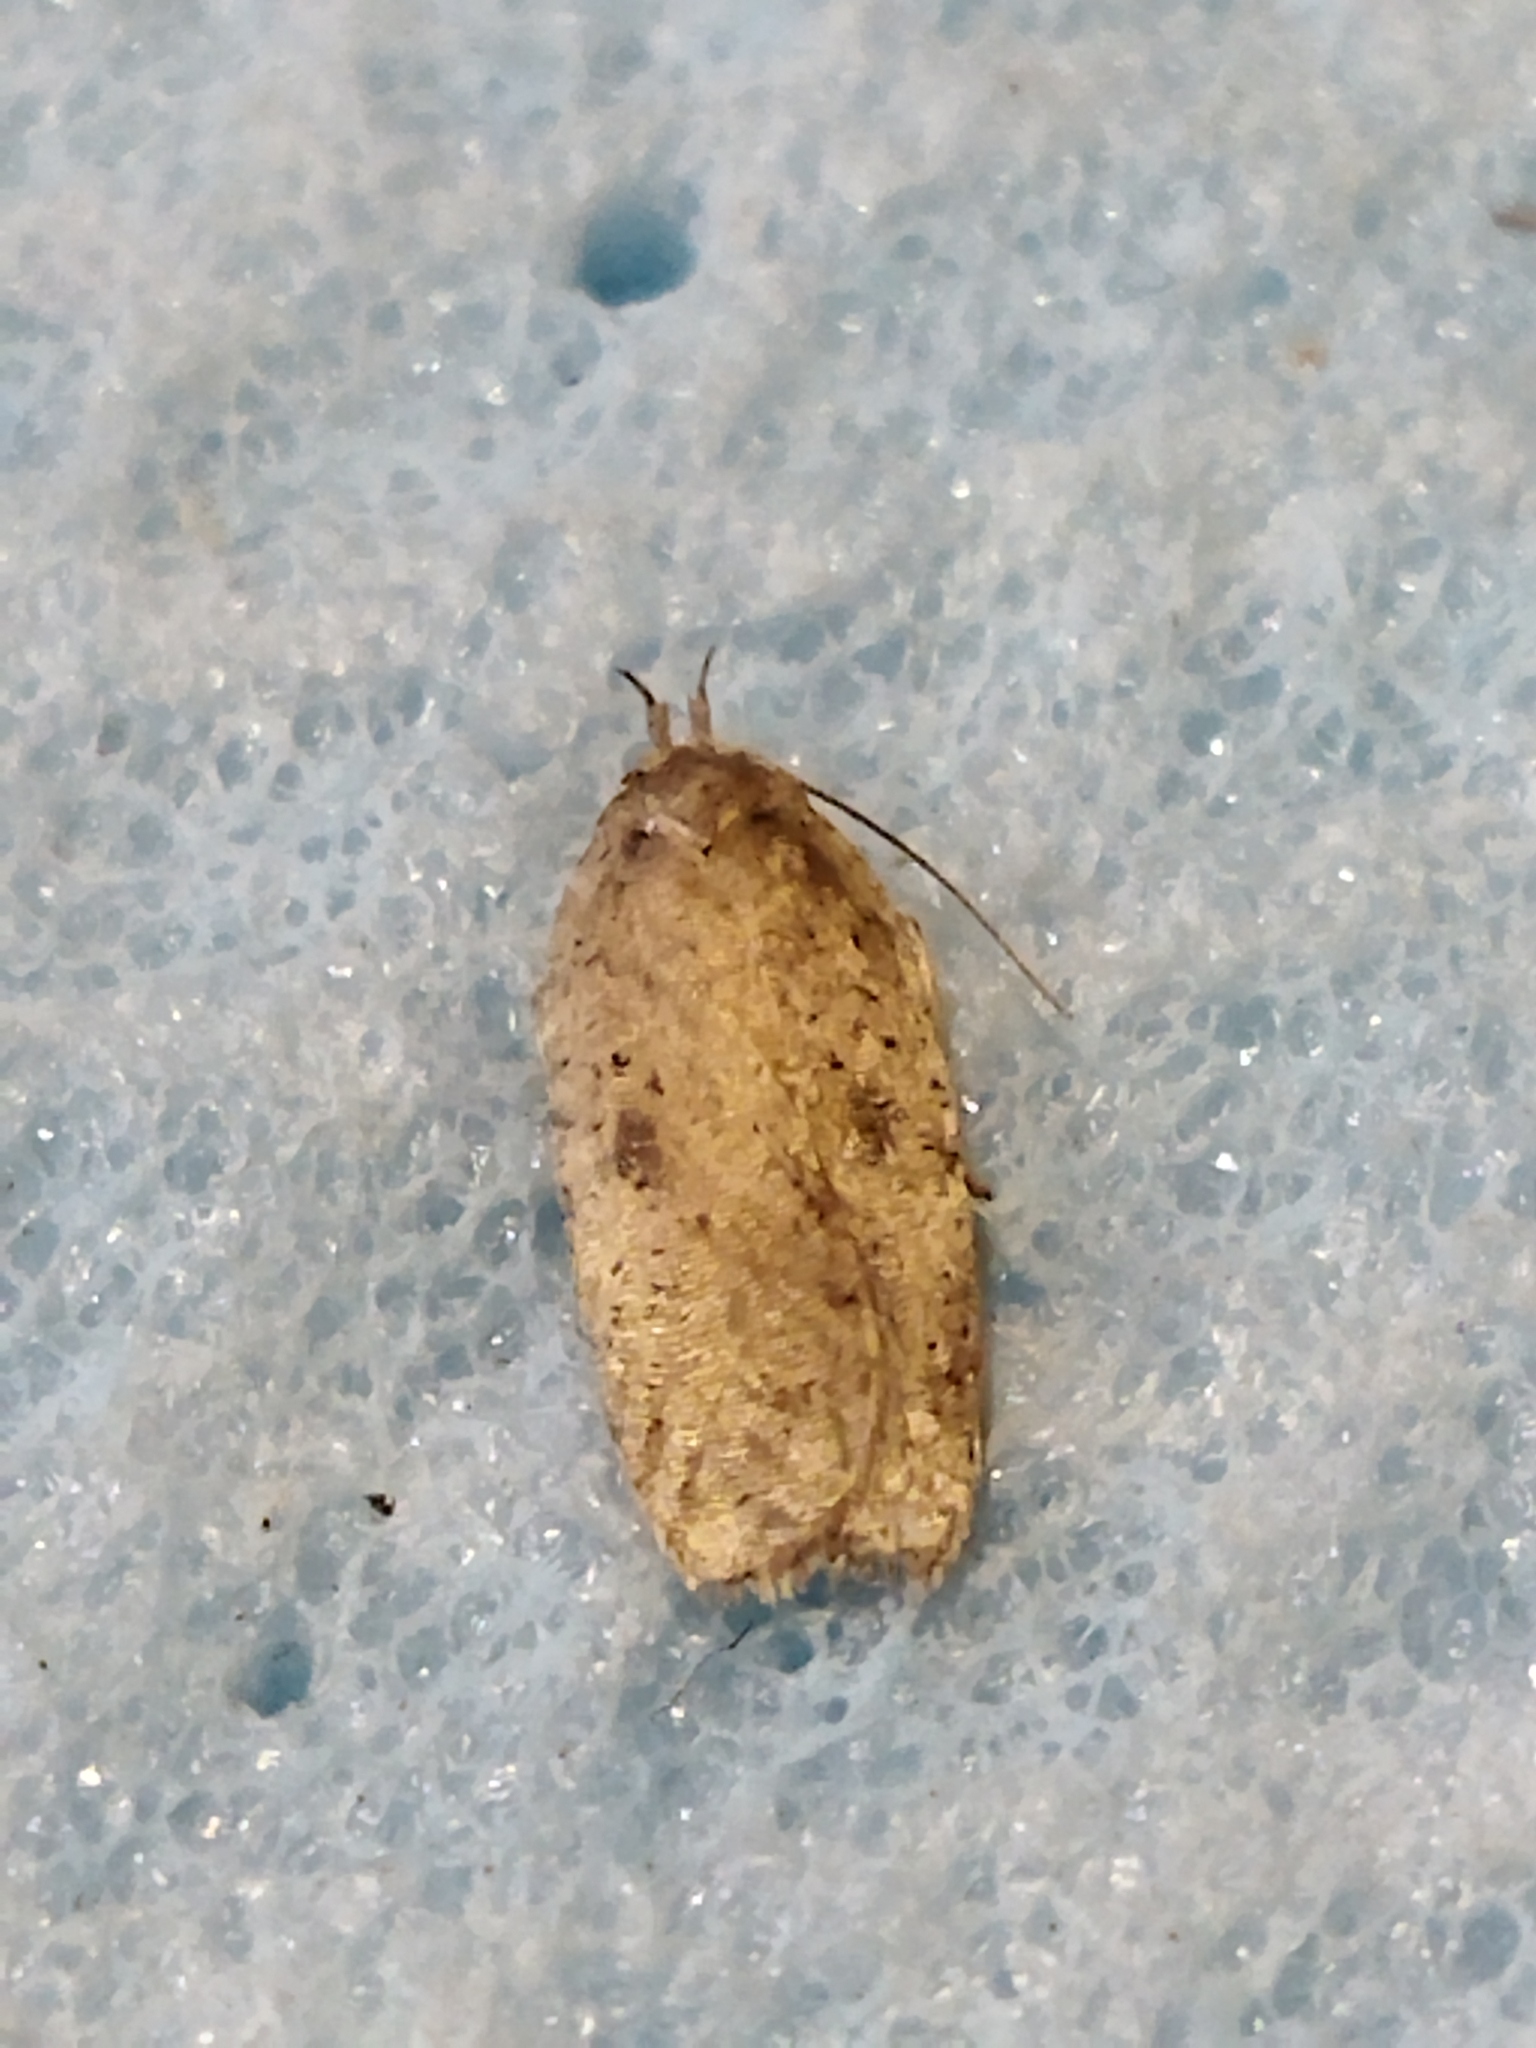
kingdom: Animalia
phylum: Arthropoda
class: Insecta
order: Lepidoptera
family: Depressariidae
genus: Agonopterix
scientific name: Agonopterix arenella
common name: Brindled flat-body
